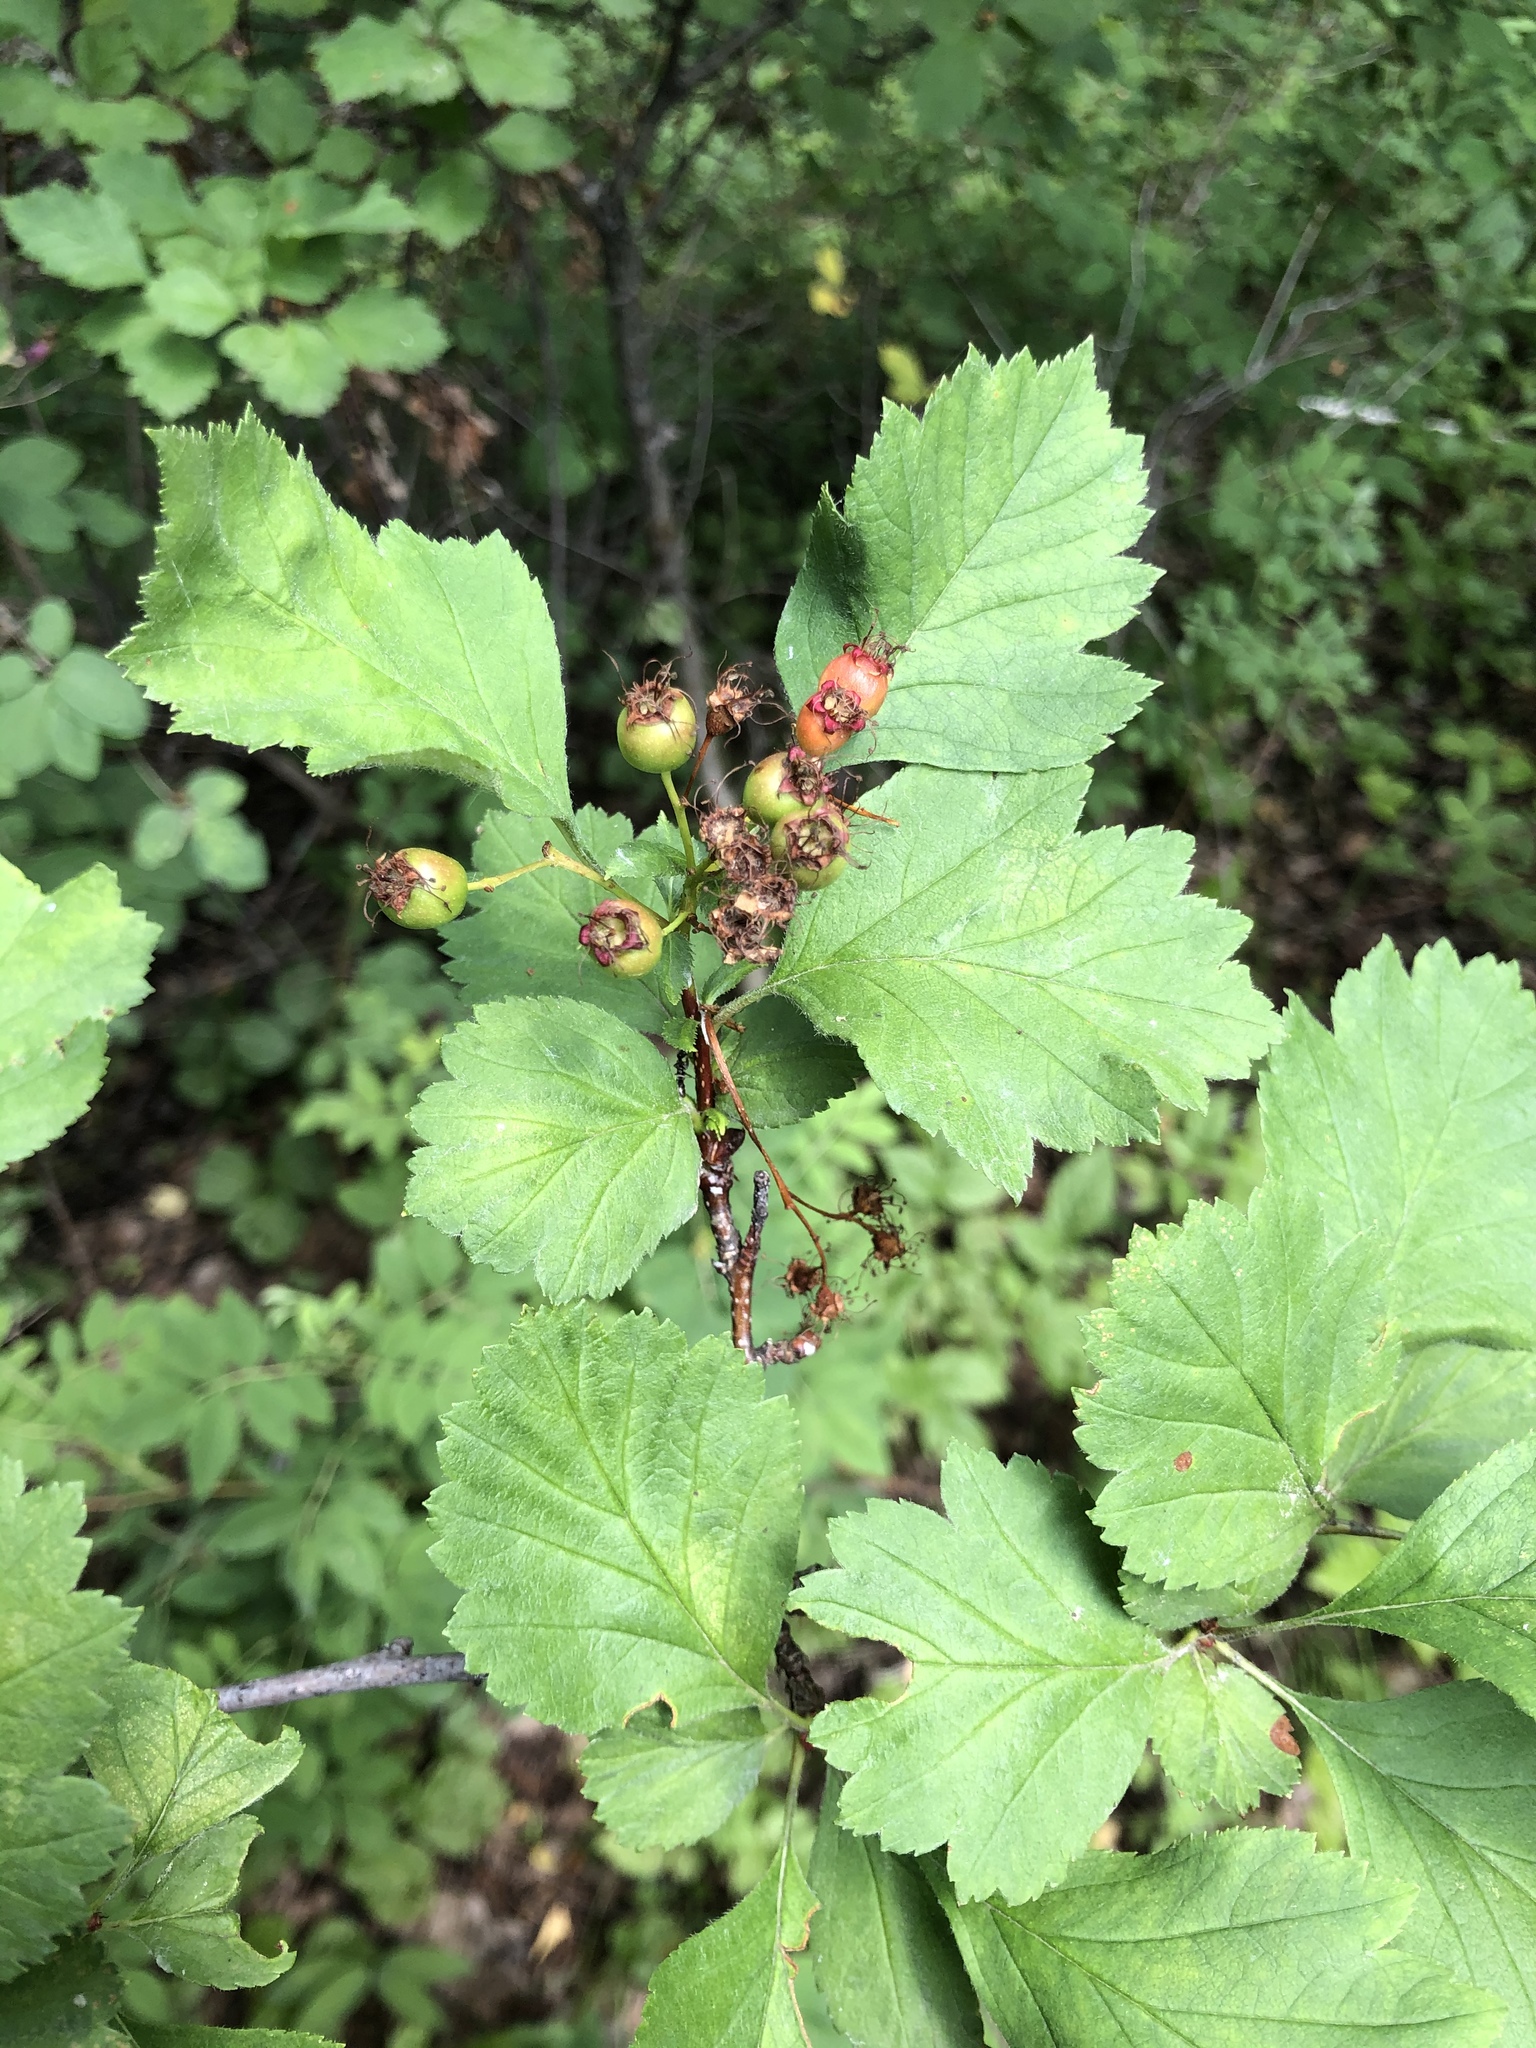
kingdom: Plantae
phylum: Tracheophyta
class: Magnoliopsida
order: Rosales
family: Rosaceae
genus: Crataegus
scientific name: Crataegus sanguinea
